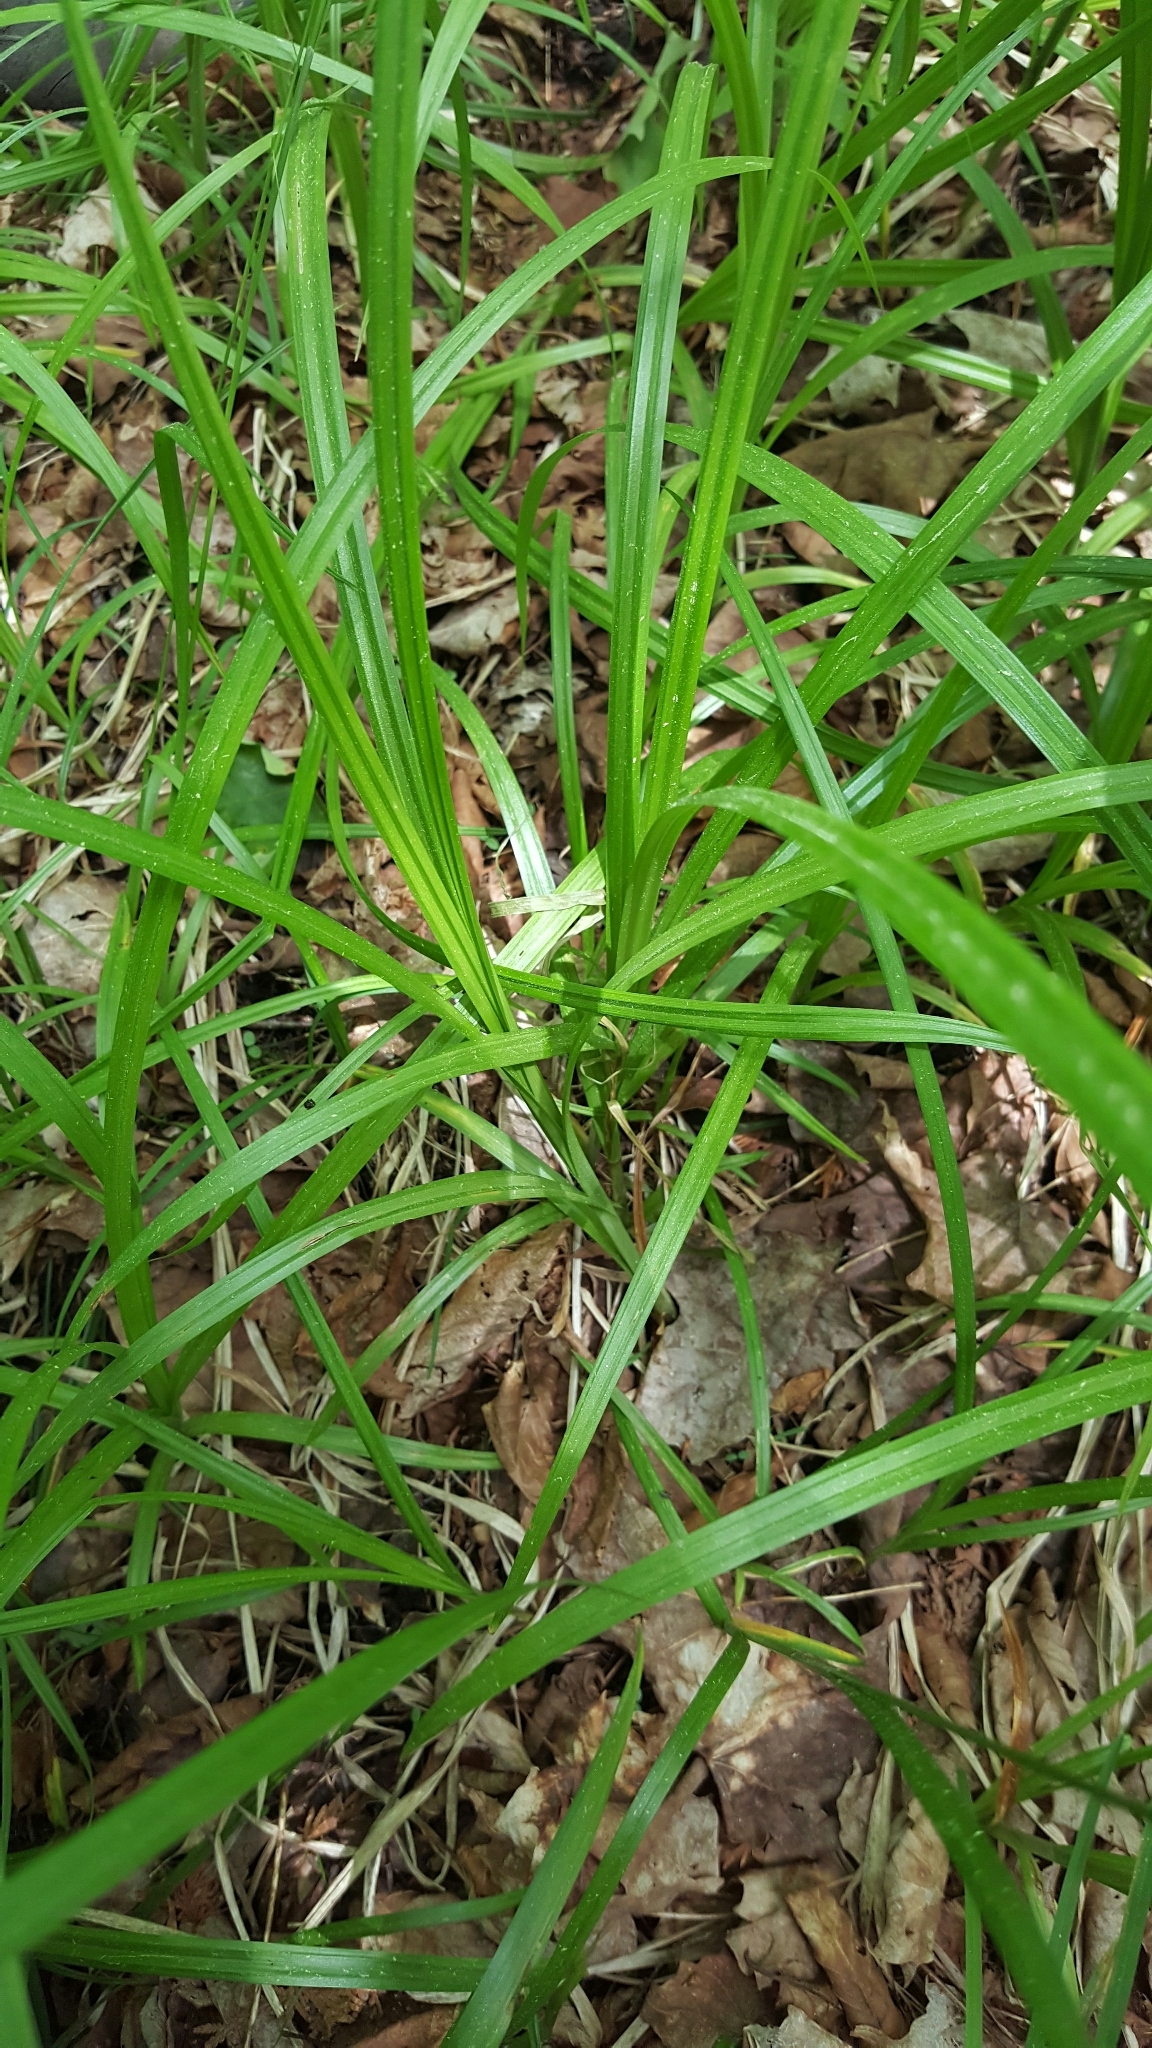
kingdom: Plantae
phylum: Tracheophyta
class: Liliopsida
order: Poales
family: Cyperaceae
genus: Carex
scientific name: Carex scabrata
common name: Eastern rough sedge
